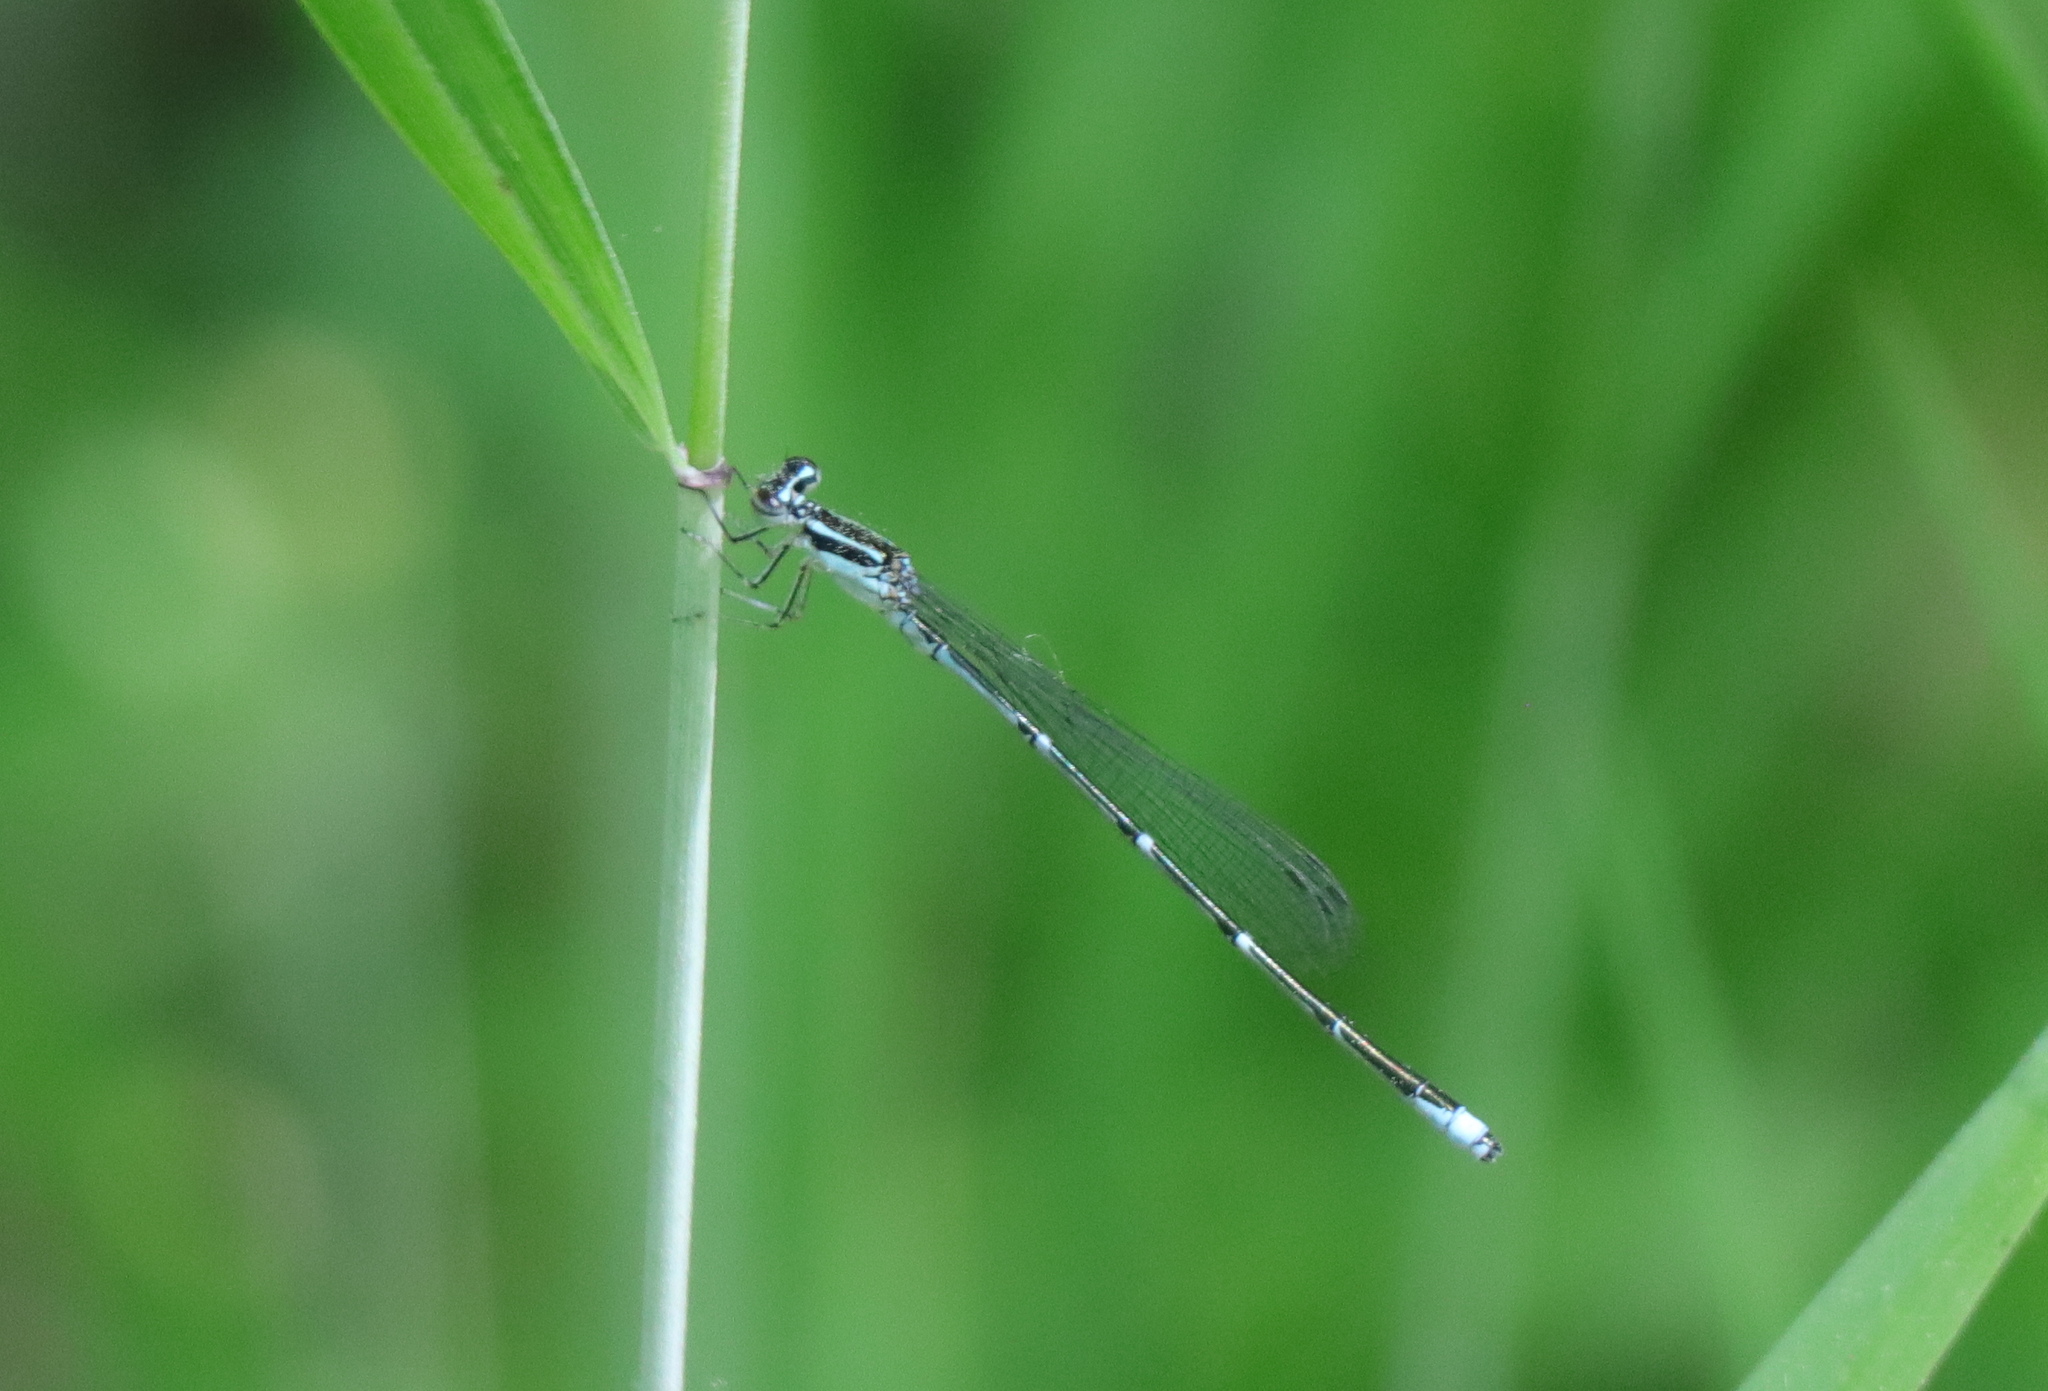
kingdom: Animalia
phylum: Arthropoda
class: Insecta
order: Odonata
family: Coenagrionidae
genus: Enallagma
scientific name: Enallagma exsulans
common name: Stream bluet
